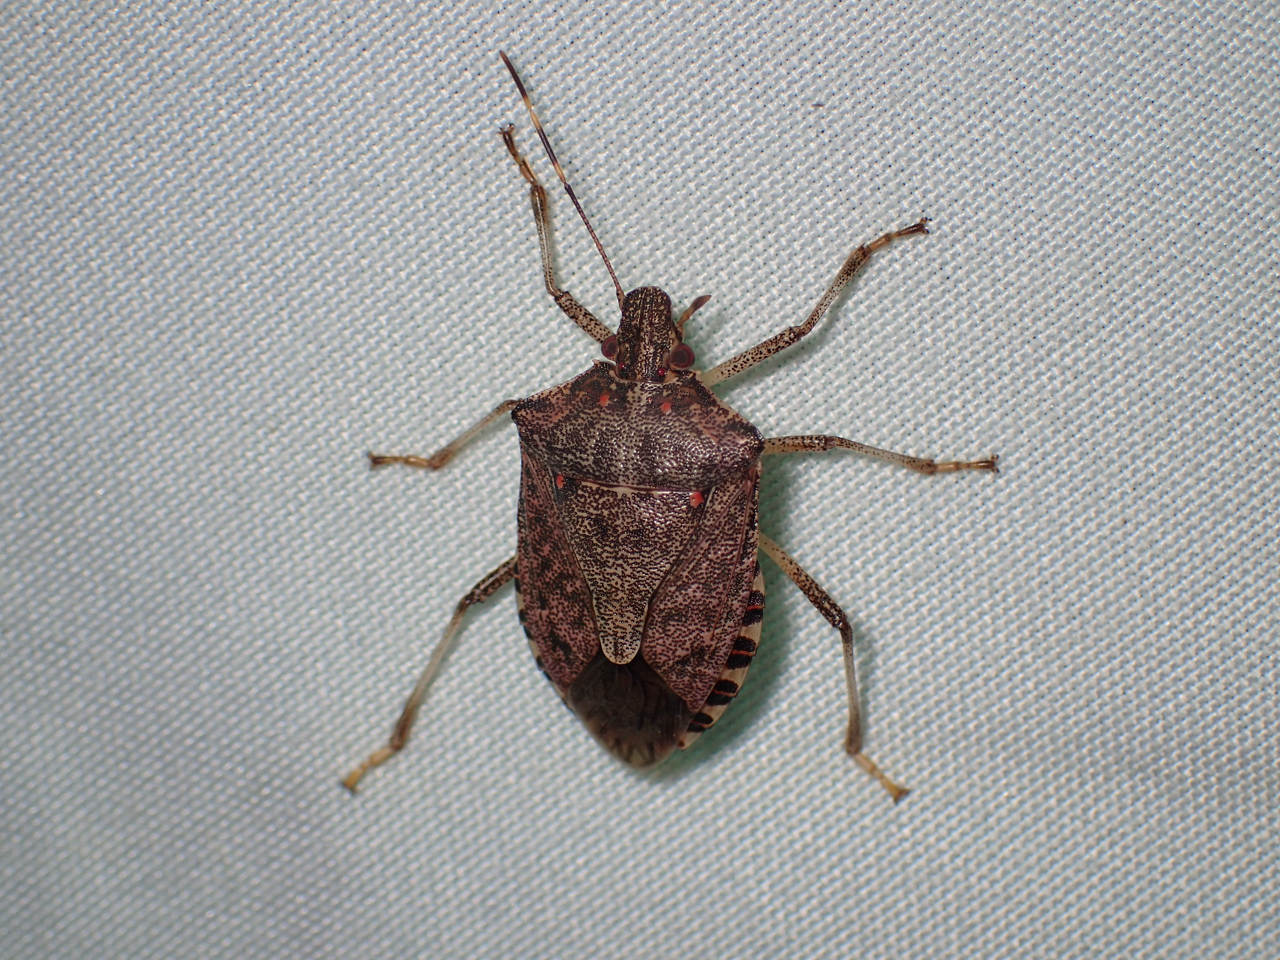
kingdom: Animalia
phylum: Arthropoda
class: Insecta
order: Hemiptera
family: Pentatomidae
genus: Halyomorpha
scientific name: Halyomorpha halys
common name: Brown marmorated stink bug
